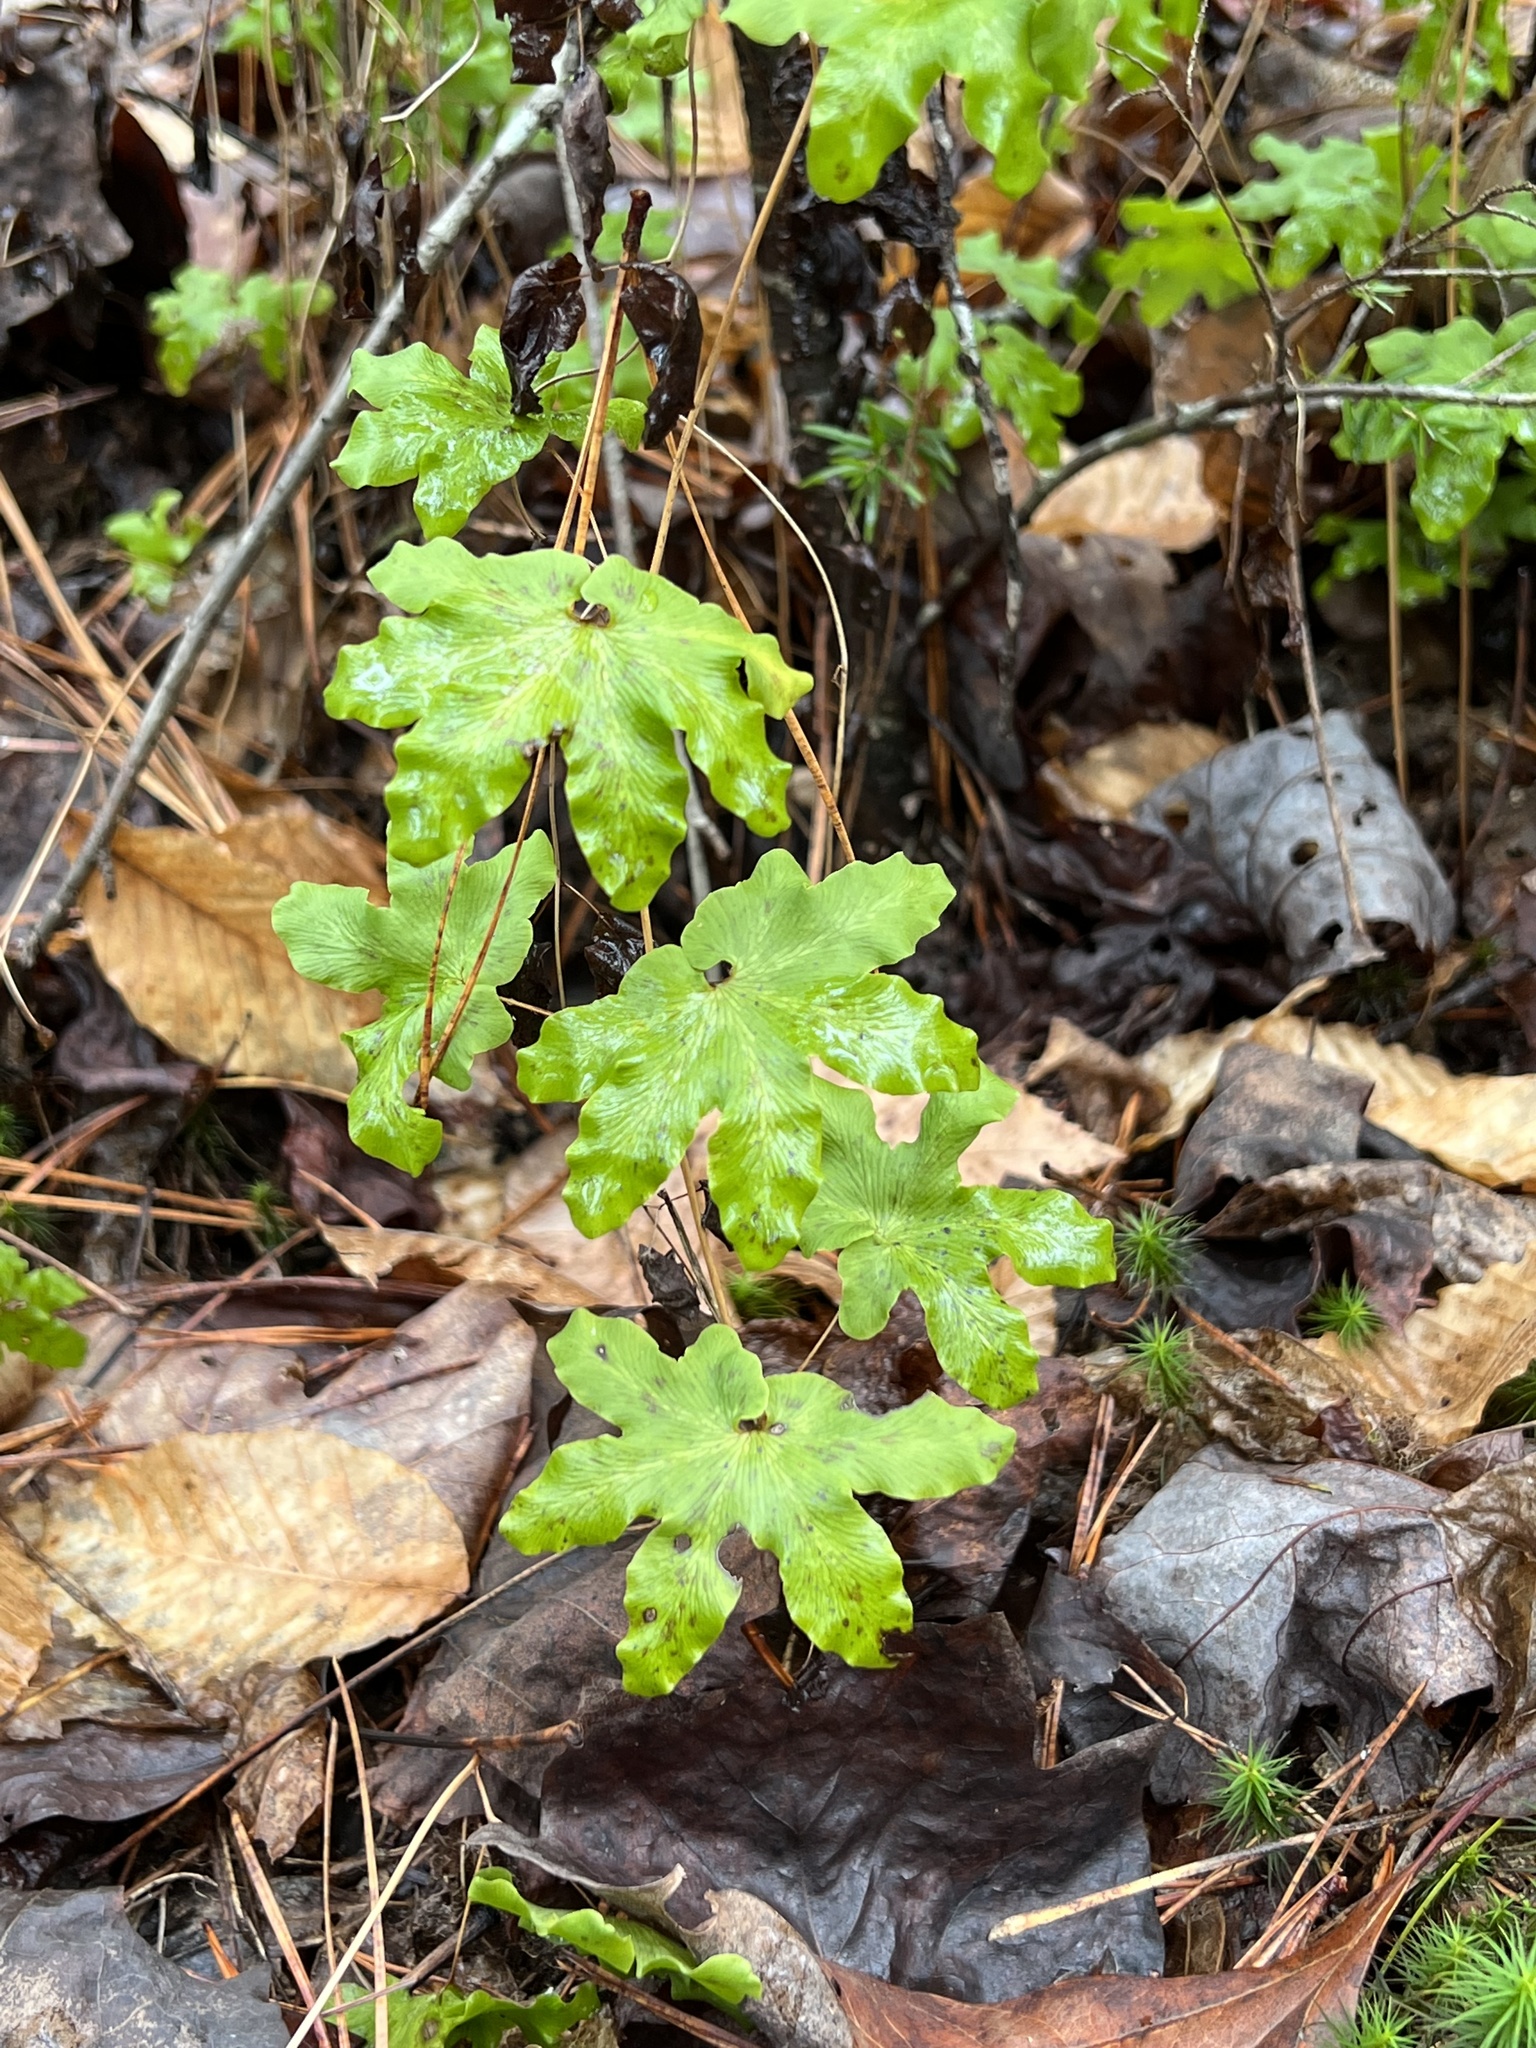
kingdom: Plantae
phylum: Tracheophyta
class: Polypodiopsida
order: Schizaeales
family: Lygodiaceae
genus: Lygodium
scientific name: Lygodium palmatum
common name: American climbing fern
